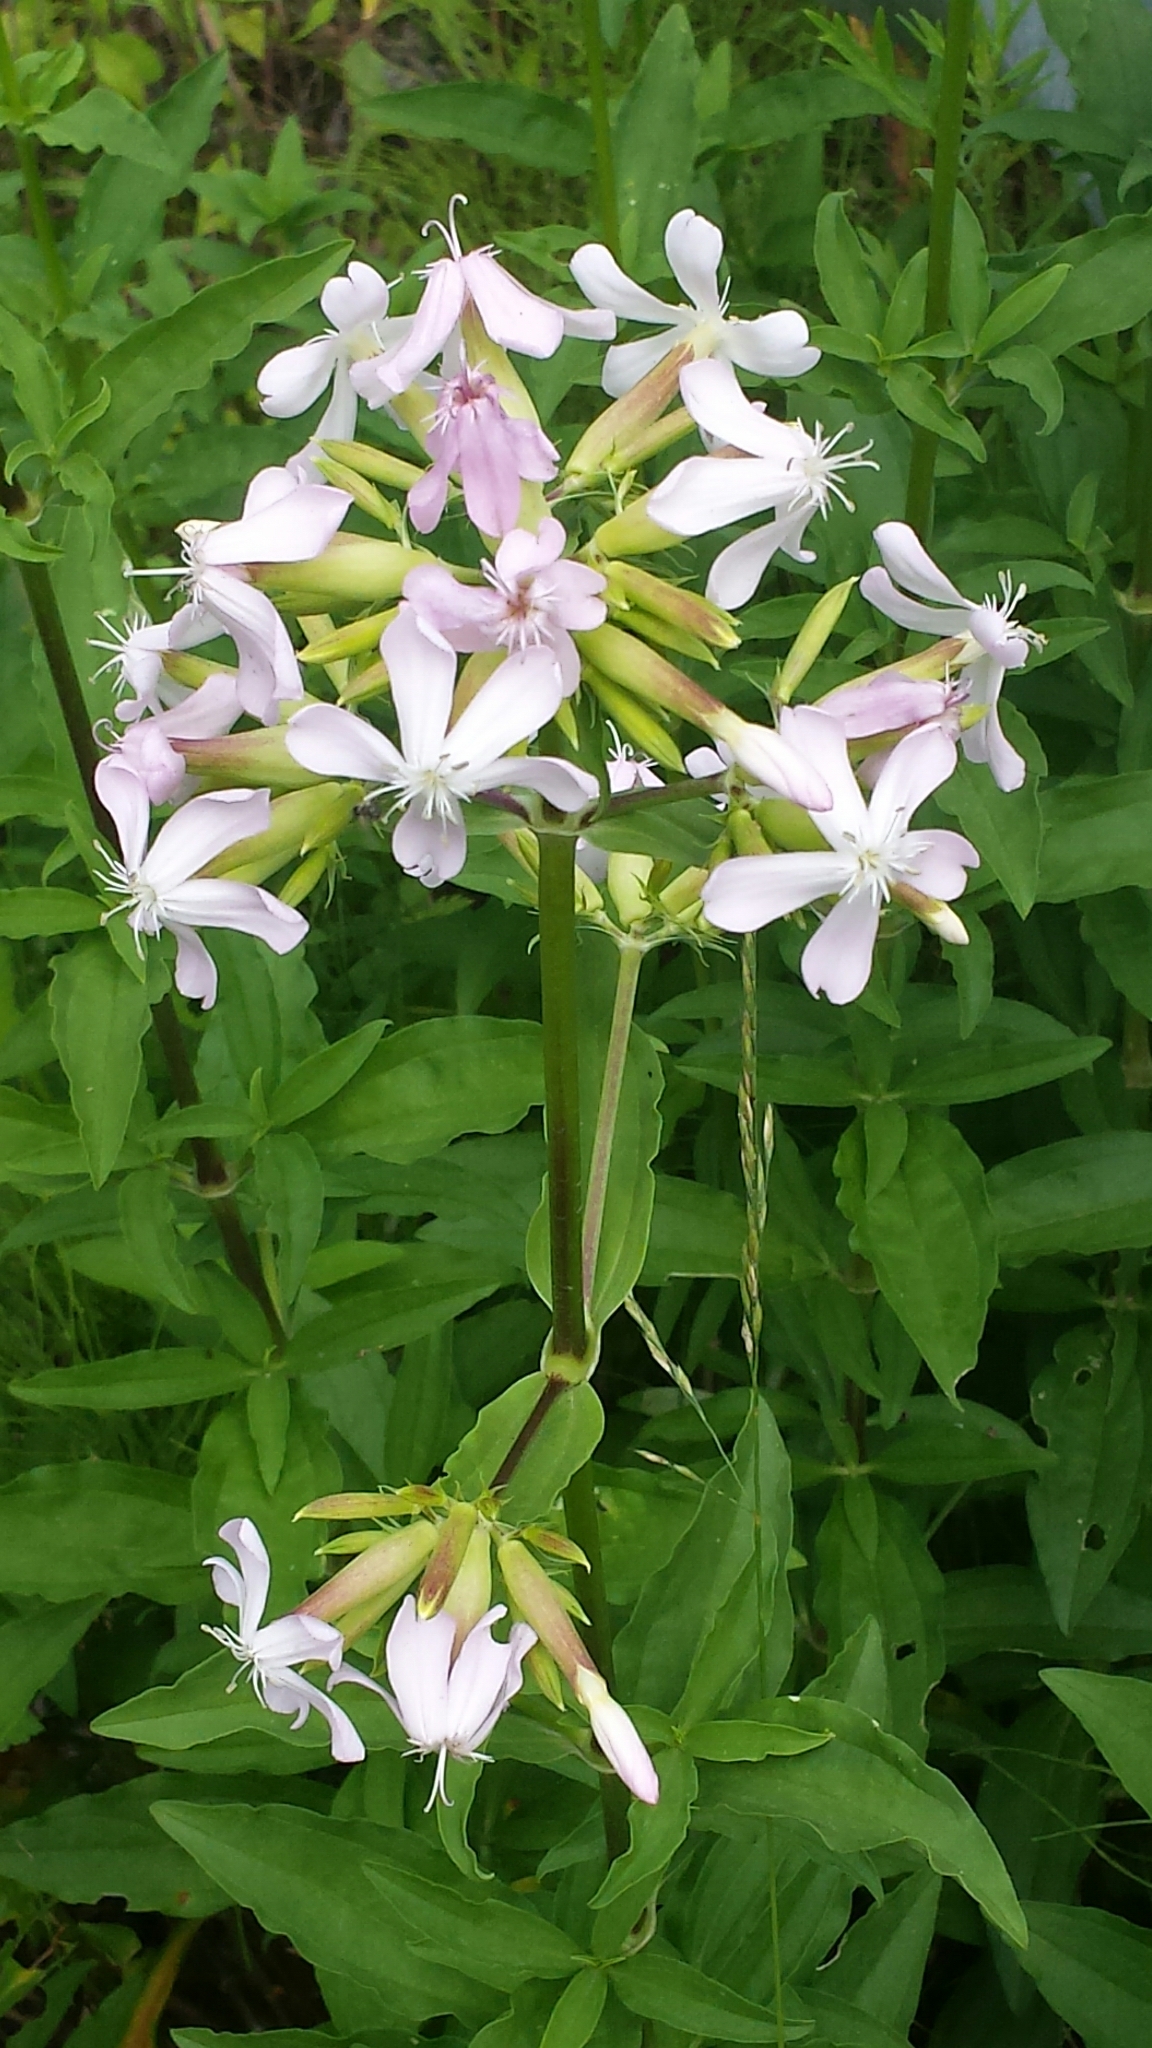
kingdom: Plantae
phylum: Tracheophyta
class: Magnoliopsida
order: Caryophyllales
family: Caryophyllaceae
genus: Saponaria
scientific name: Saponaria officinalis
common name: Soapwort
